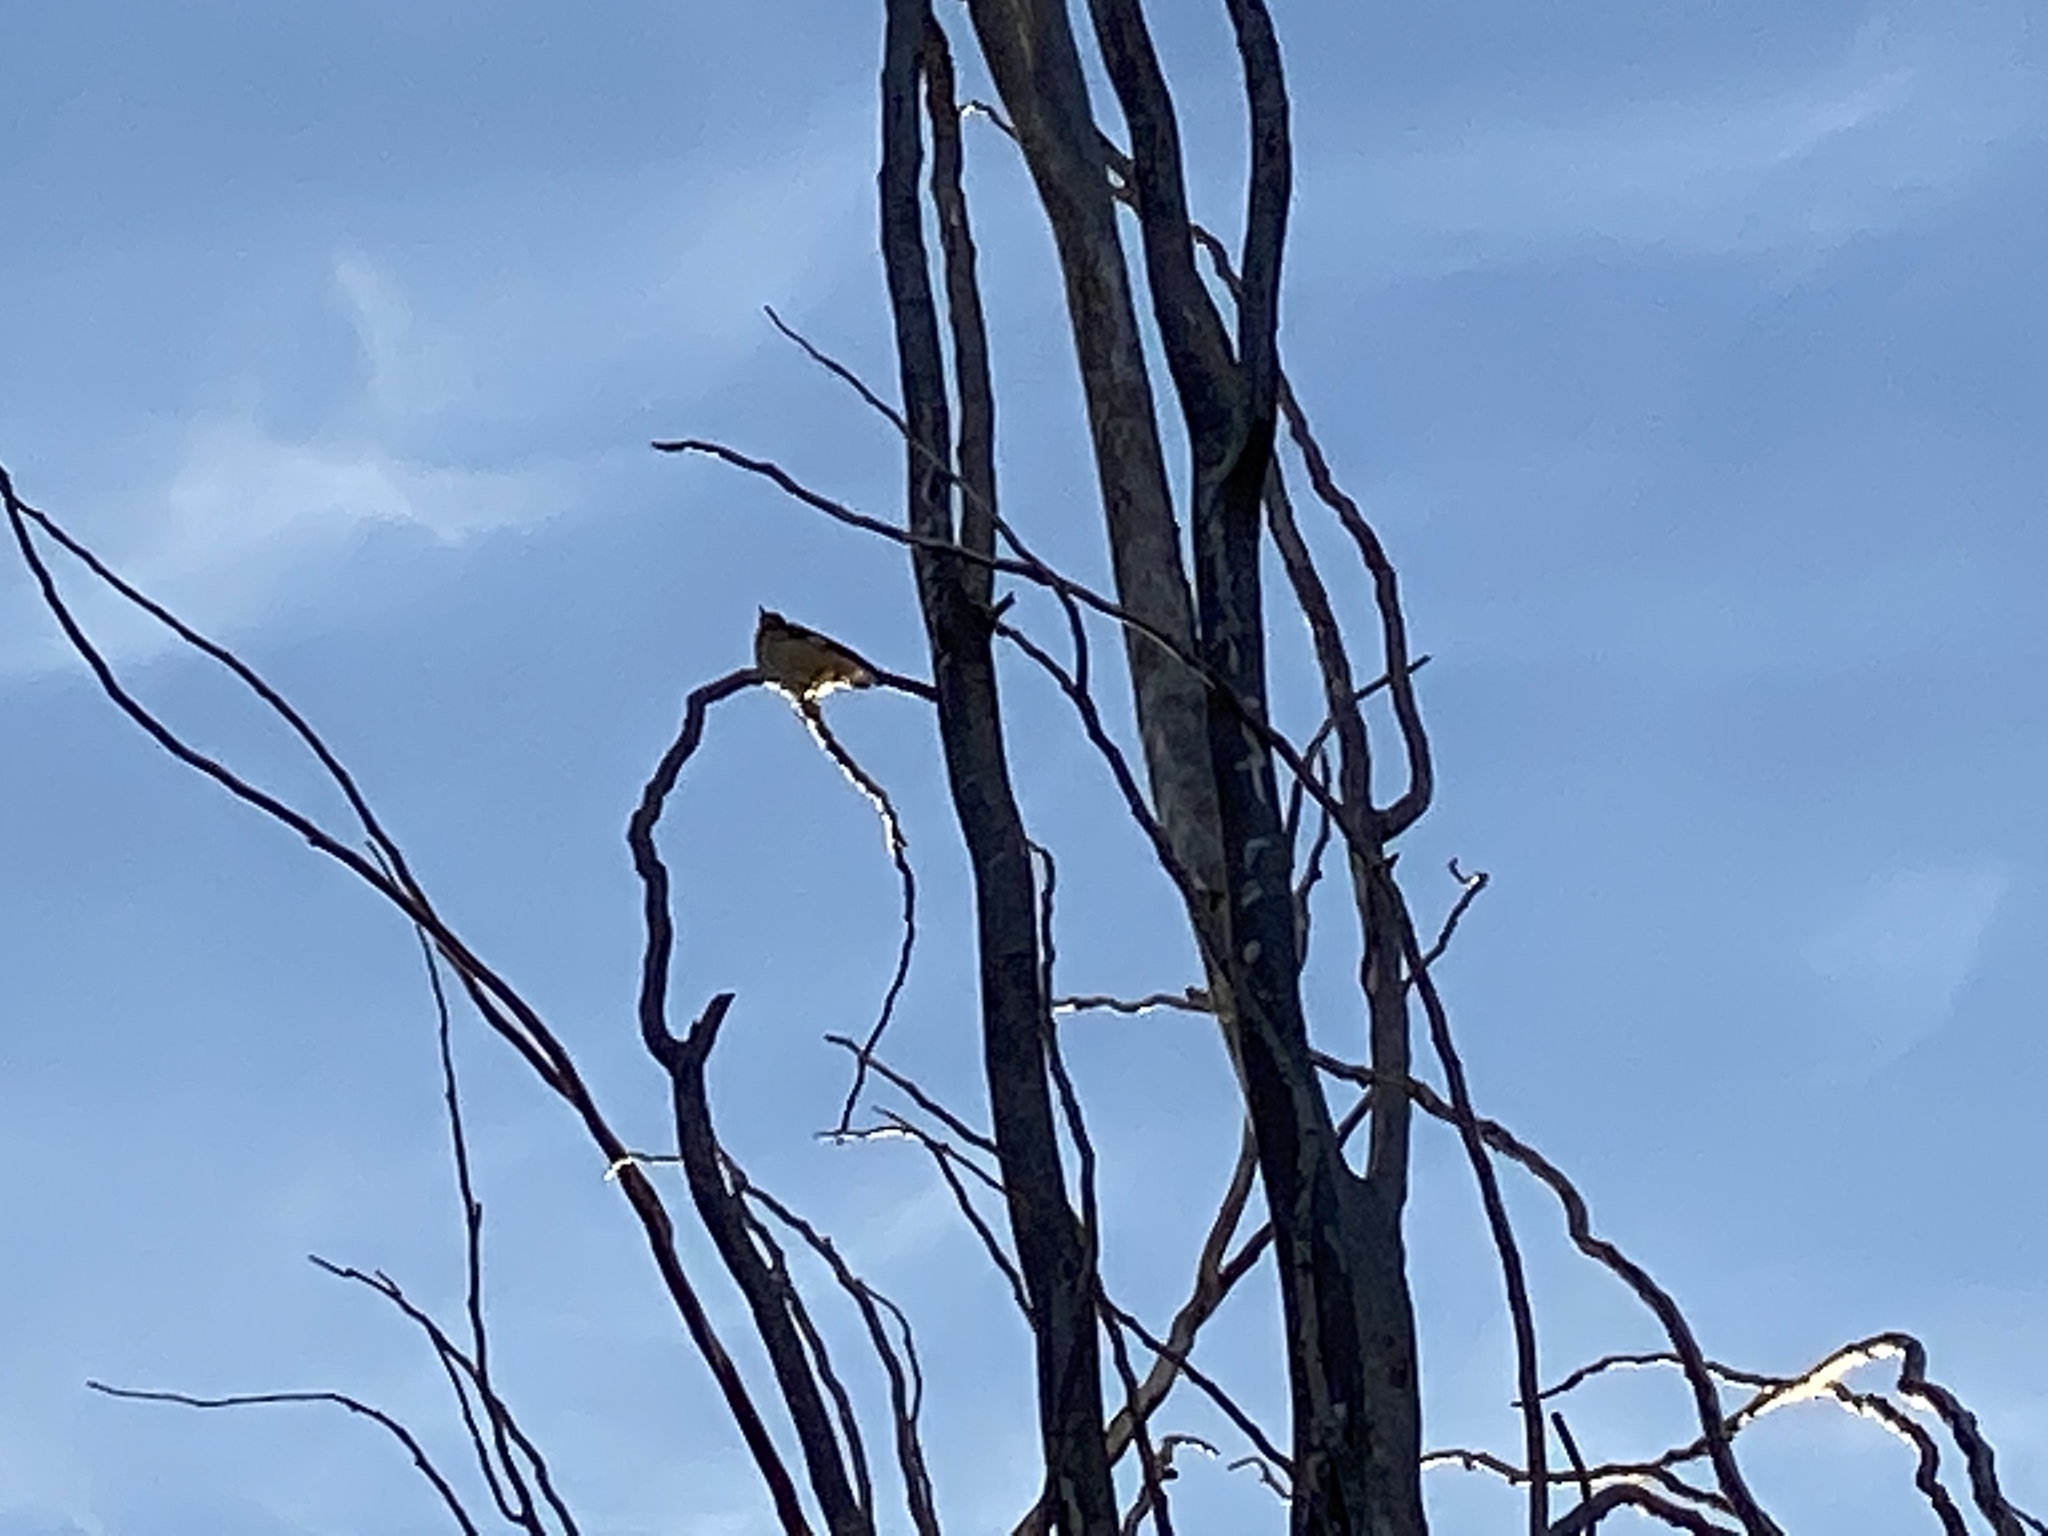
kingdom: Animalia
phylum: Chordata
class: Aves
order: Passeriformes
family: Mimidae
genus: Mimus
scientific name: Mimus polyglottos
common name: Northern mockingbird
